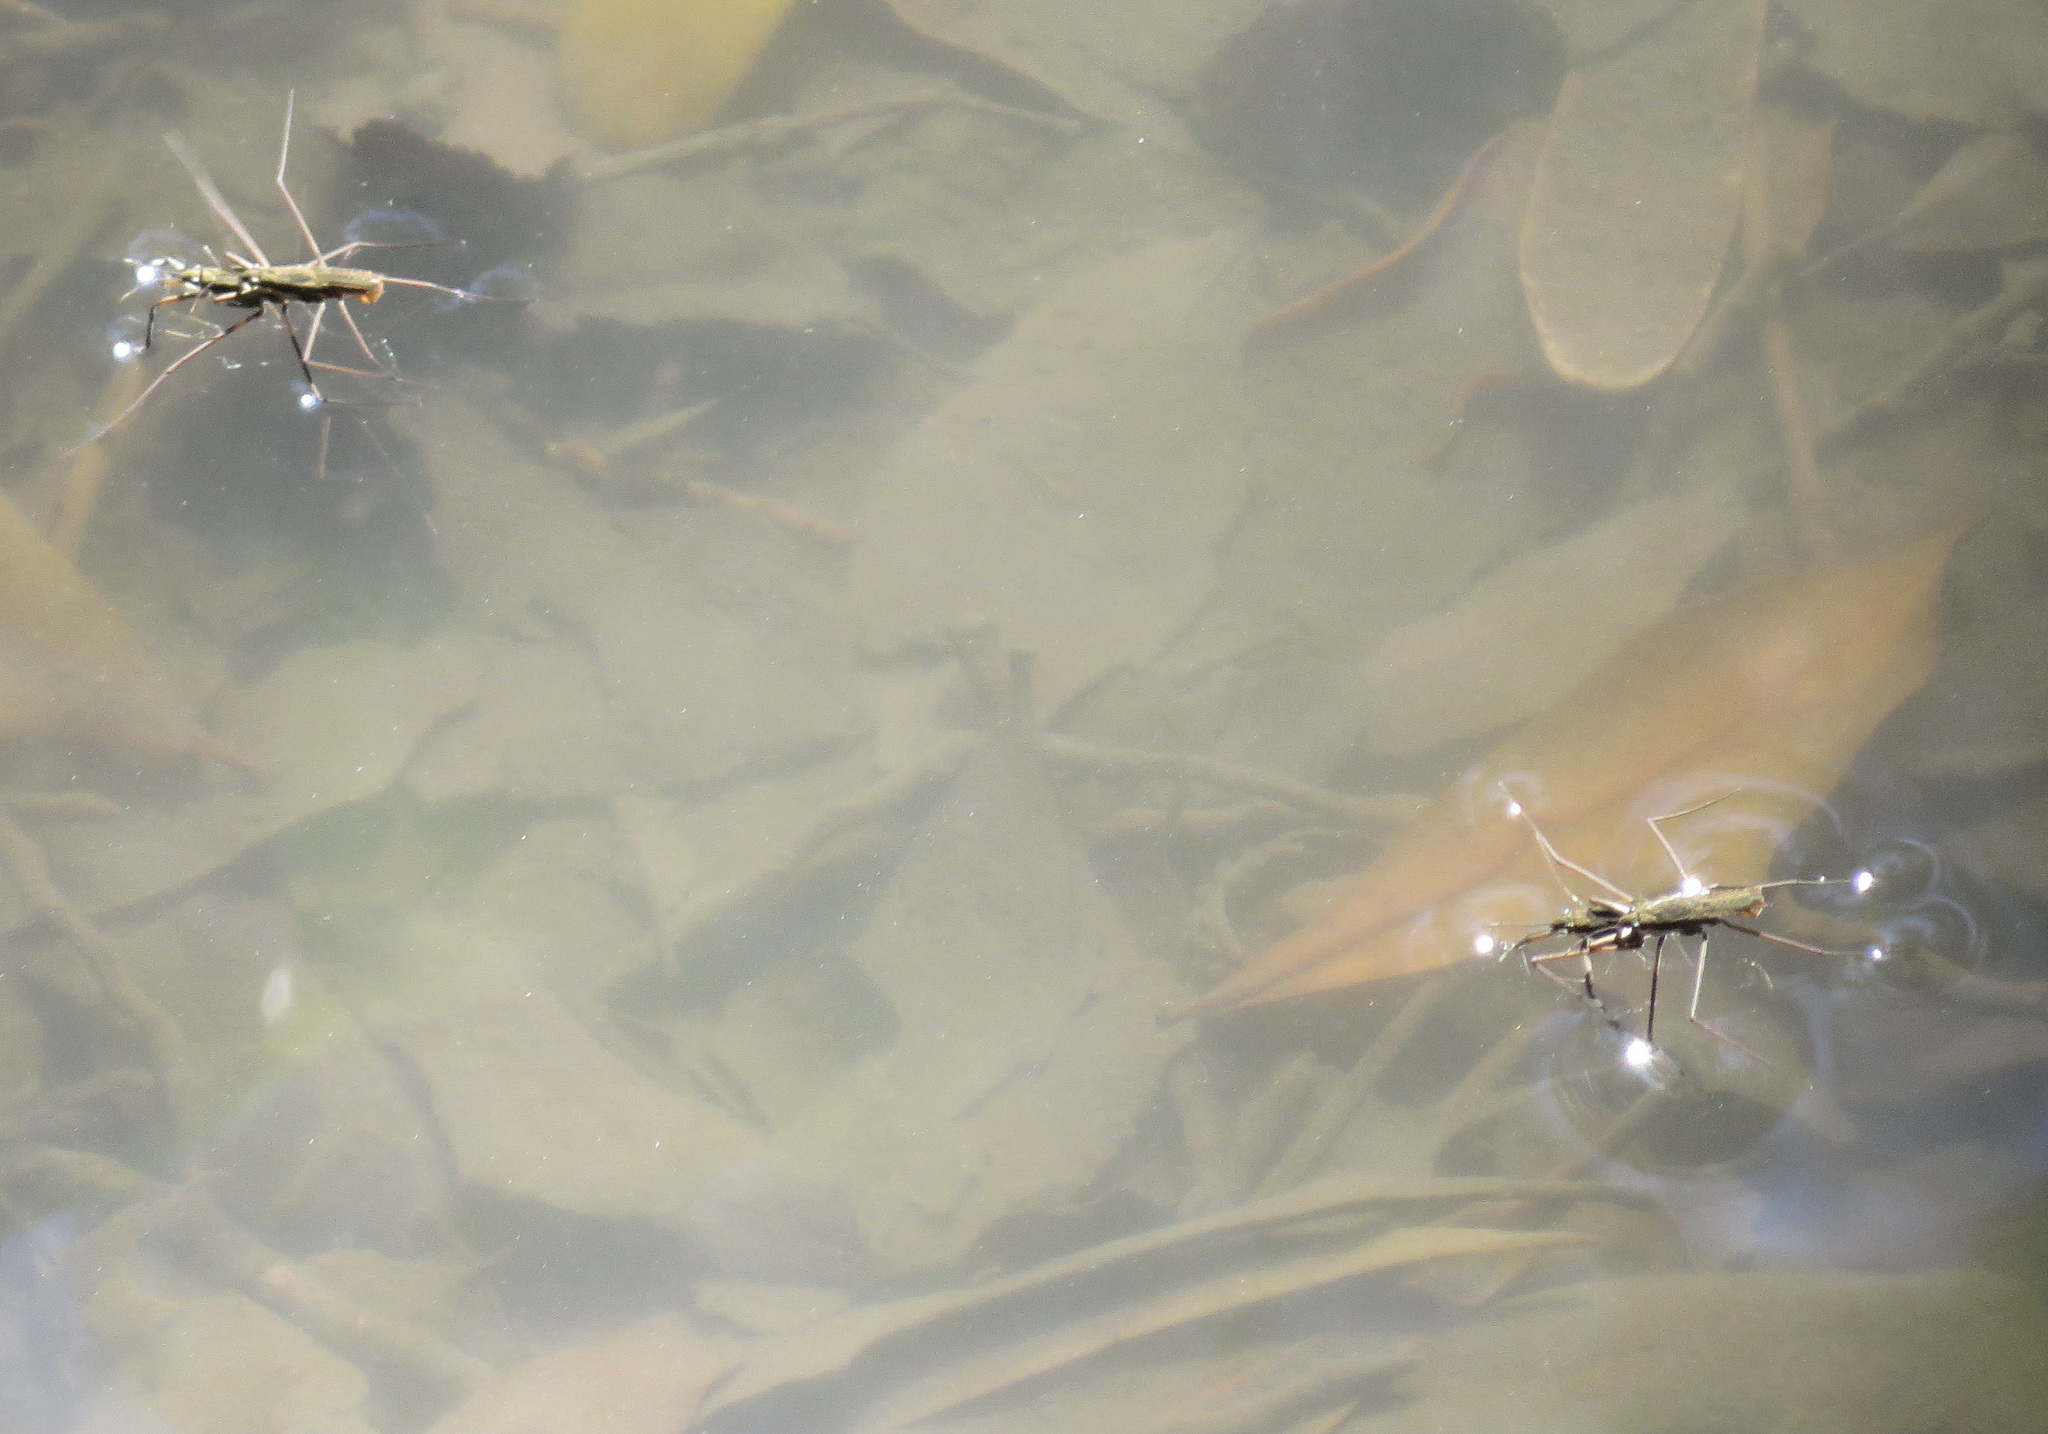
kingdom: Animalia
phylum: Arthropoda
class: Insecta
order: Hemiptera
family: Gerridae
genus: Aquarius
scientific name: Aquarius remigis
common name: Common water strider
